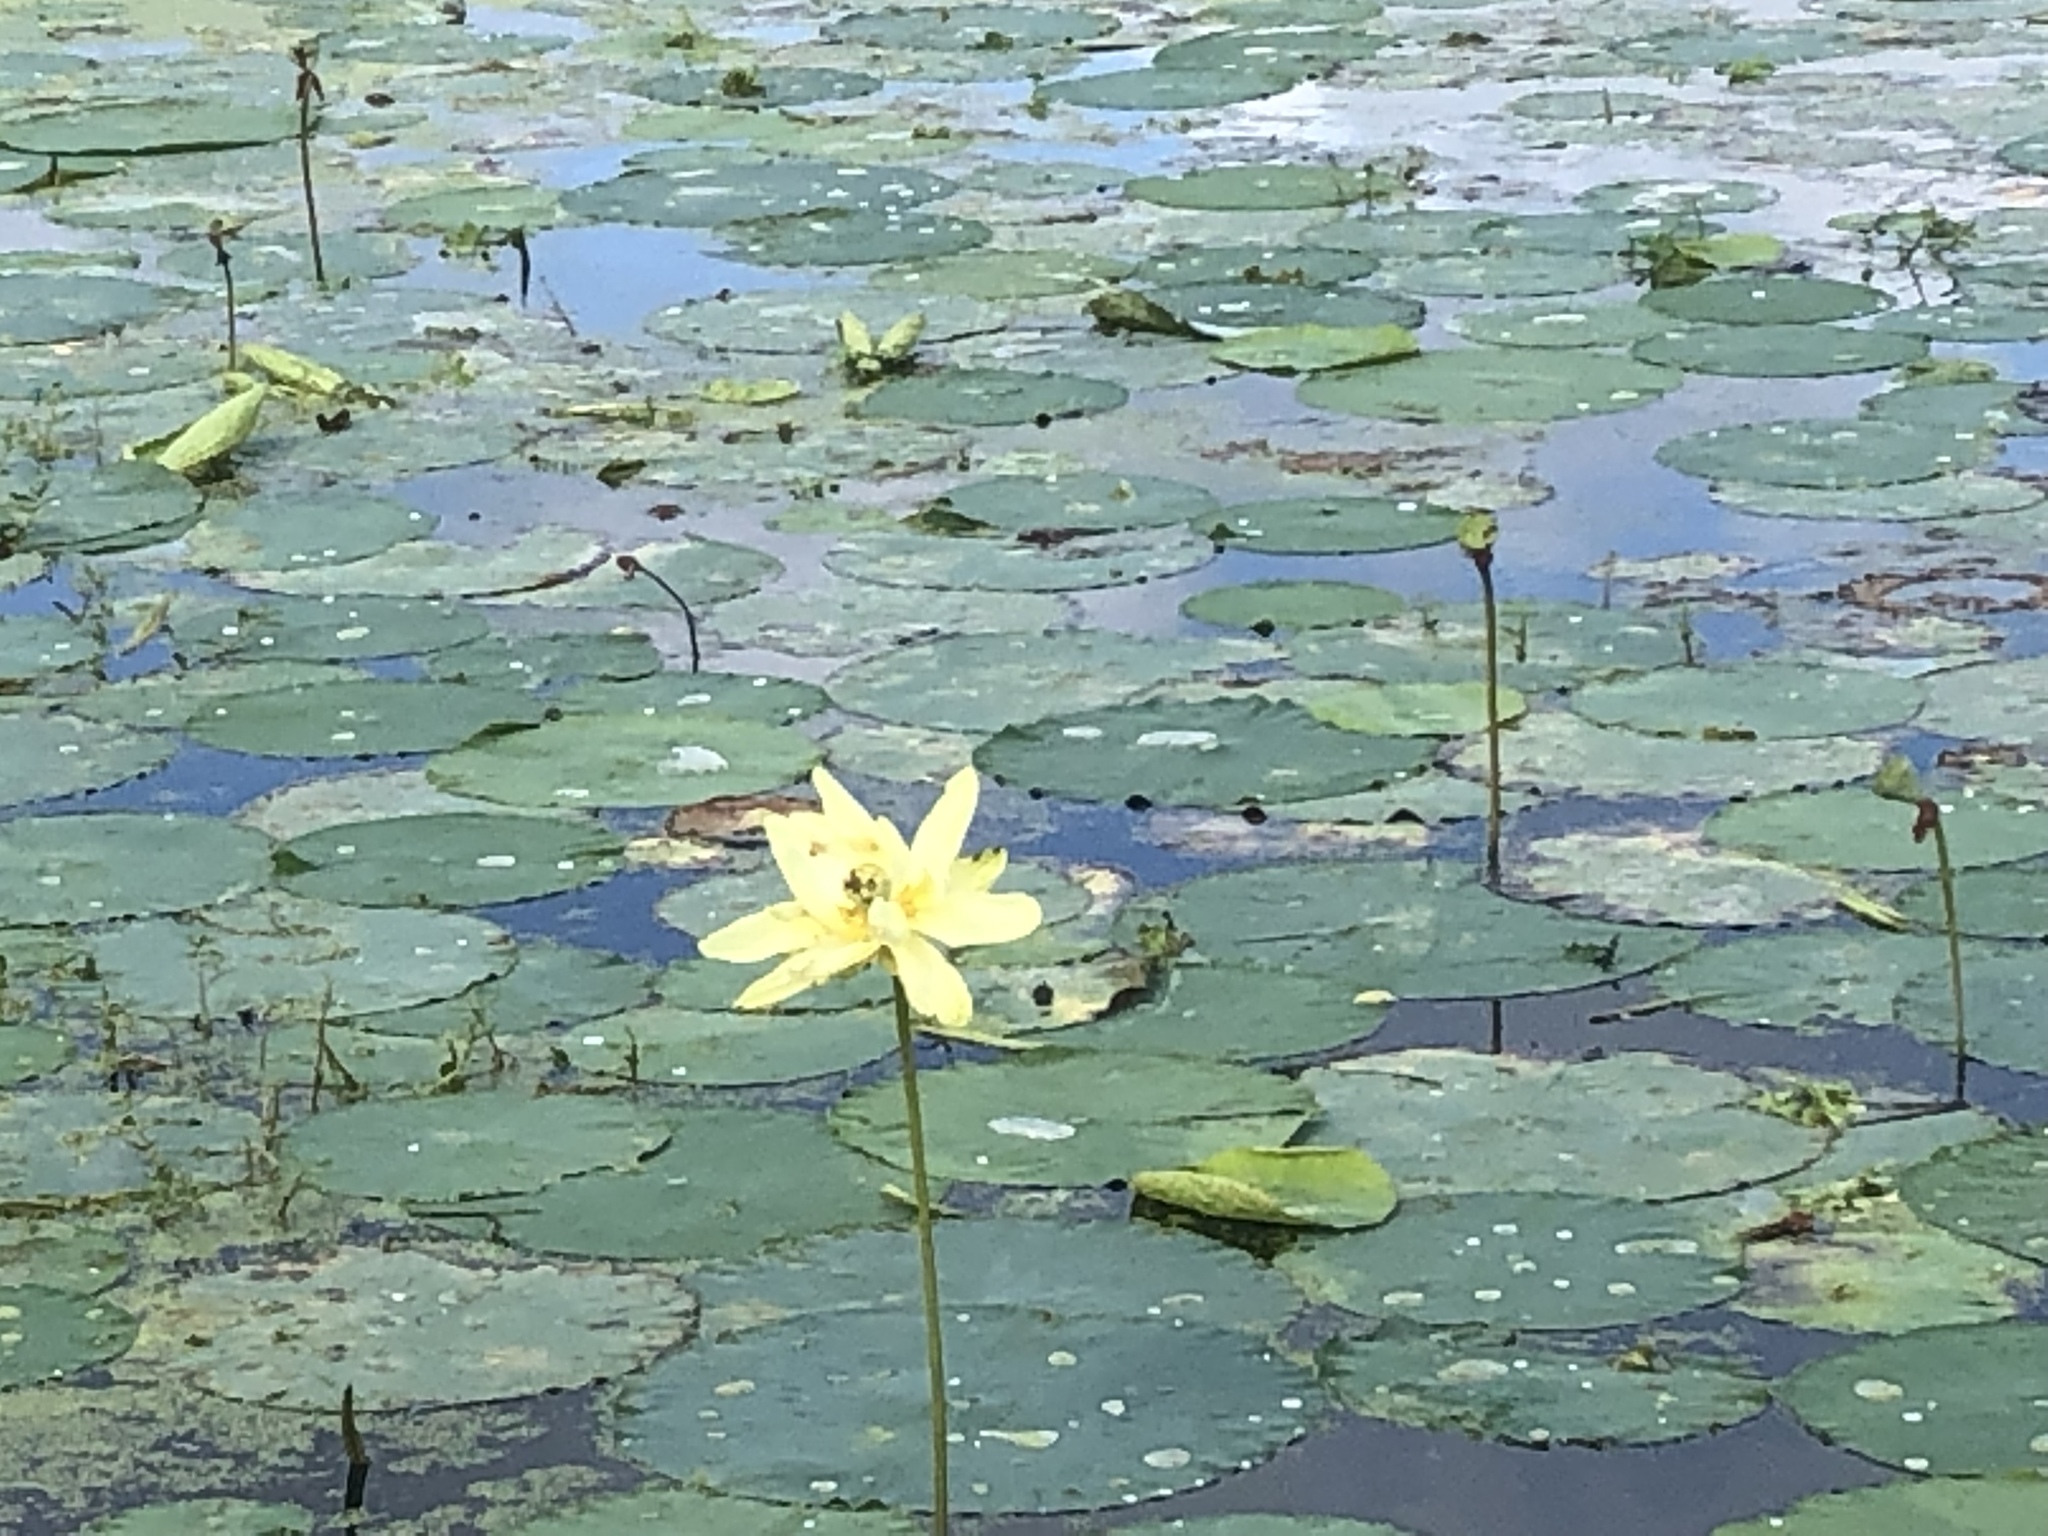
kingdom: Plantae
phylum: Tracheophyta
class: Magnoliopsida
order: Proteales
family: Nelumbonaceae
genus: Nelumbo
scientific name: Nelumbo lutea
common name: American lotus
